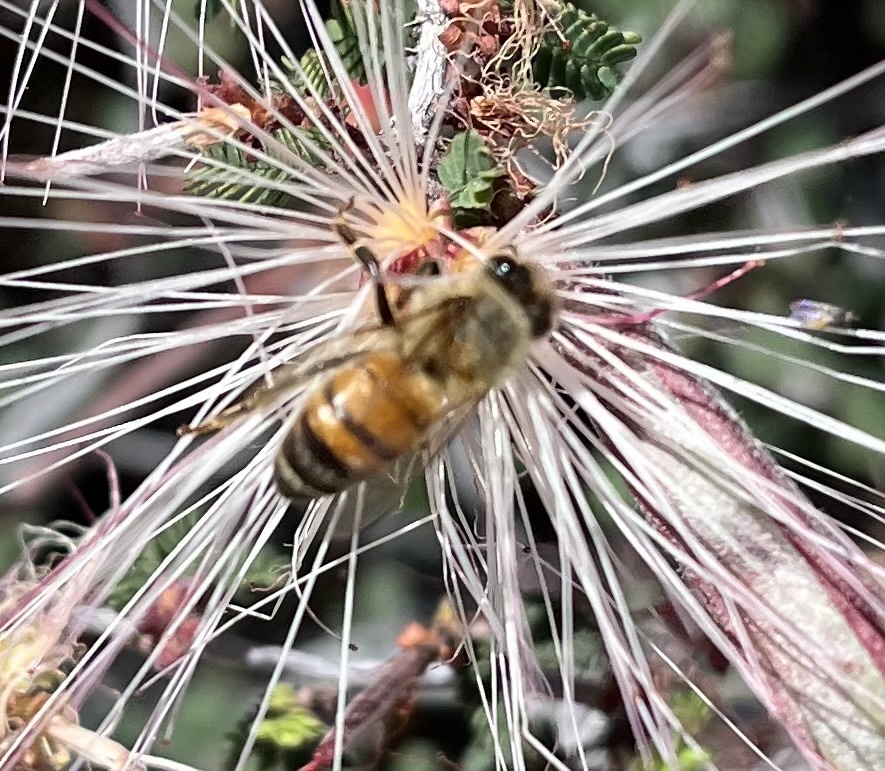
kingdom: Animalia
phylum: Arthropoda
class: Insecta
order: Hymenoptera
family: Apidae
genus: Apis
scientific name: Apis mellifera
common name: Honey bee
